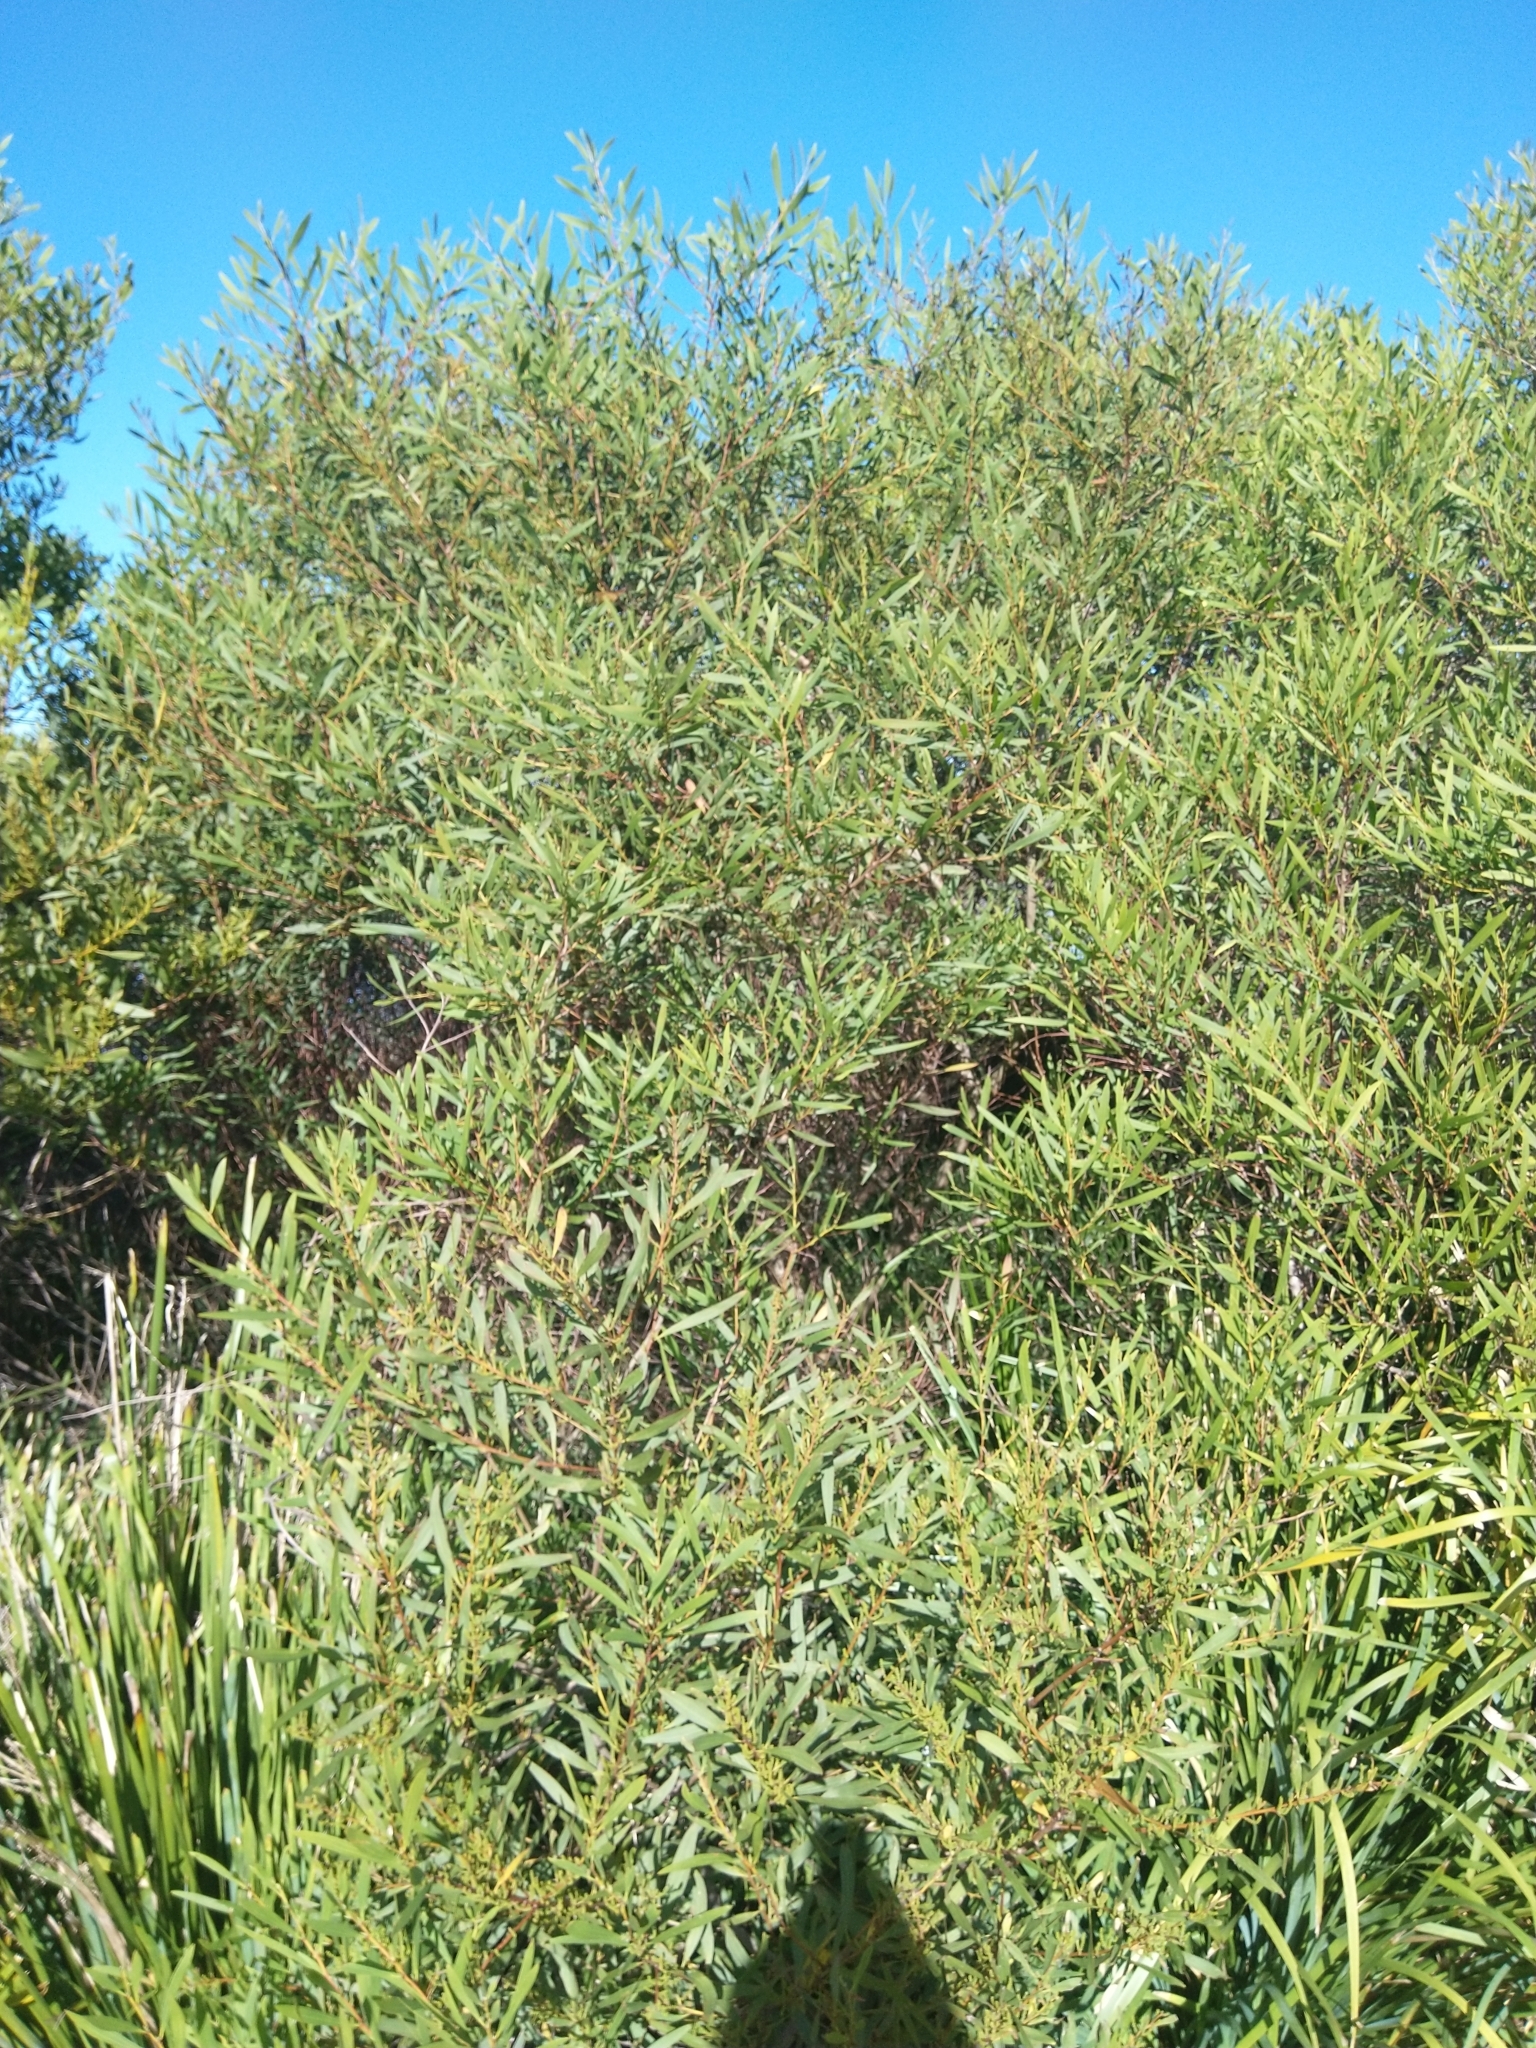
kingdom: Plantae
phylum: Tracheophyta
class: Magnoliopsida
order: Fabales
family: Fabaceae
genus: Acacia
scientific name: Acacia longifolia
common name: Sydney golden wattle
